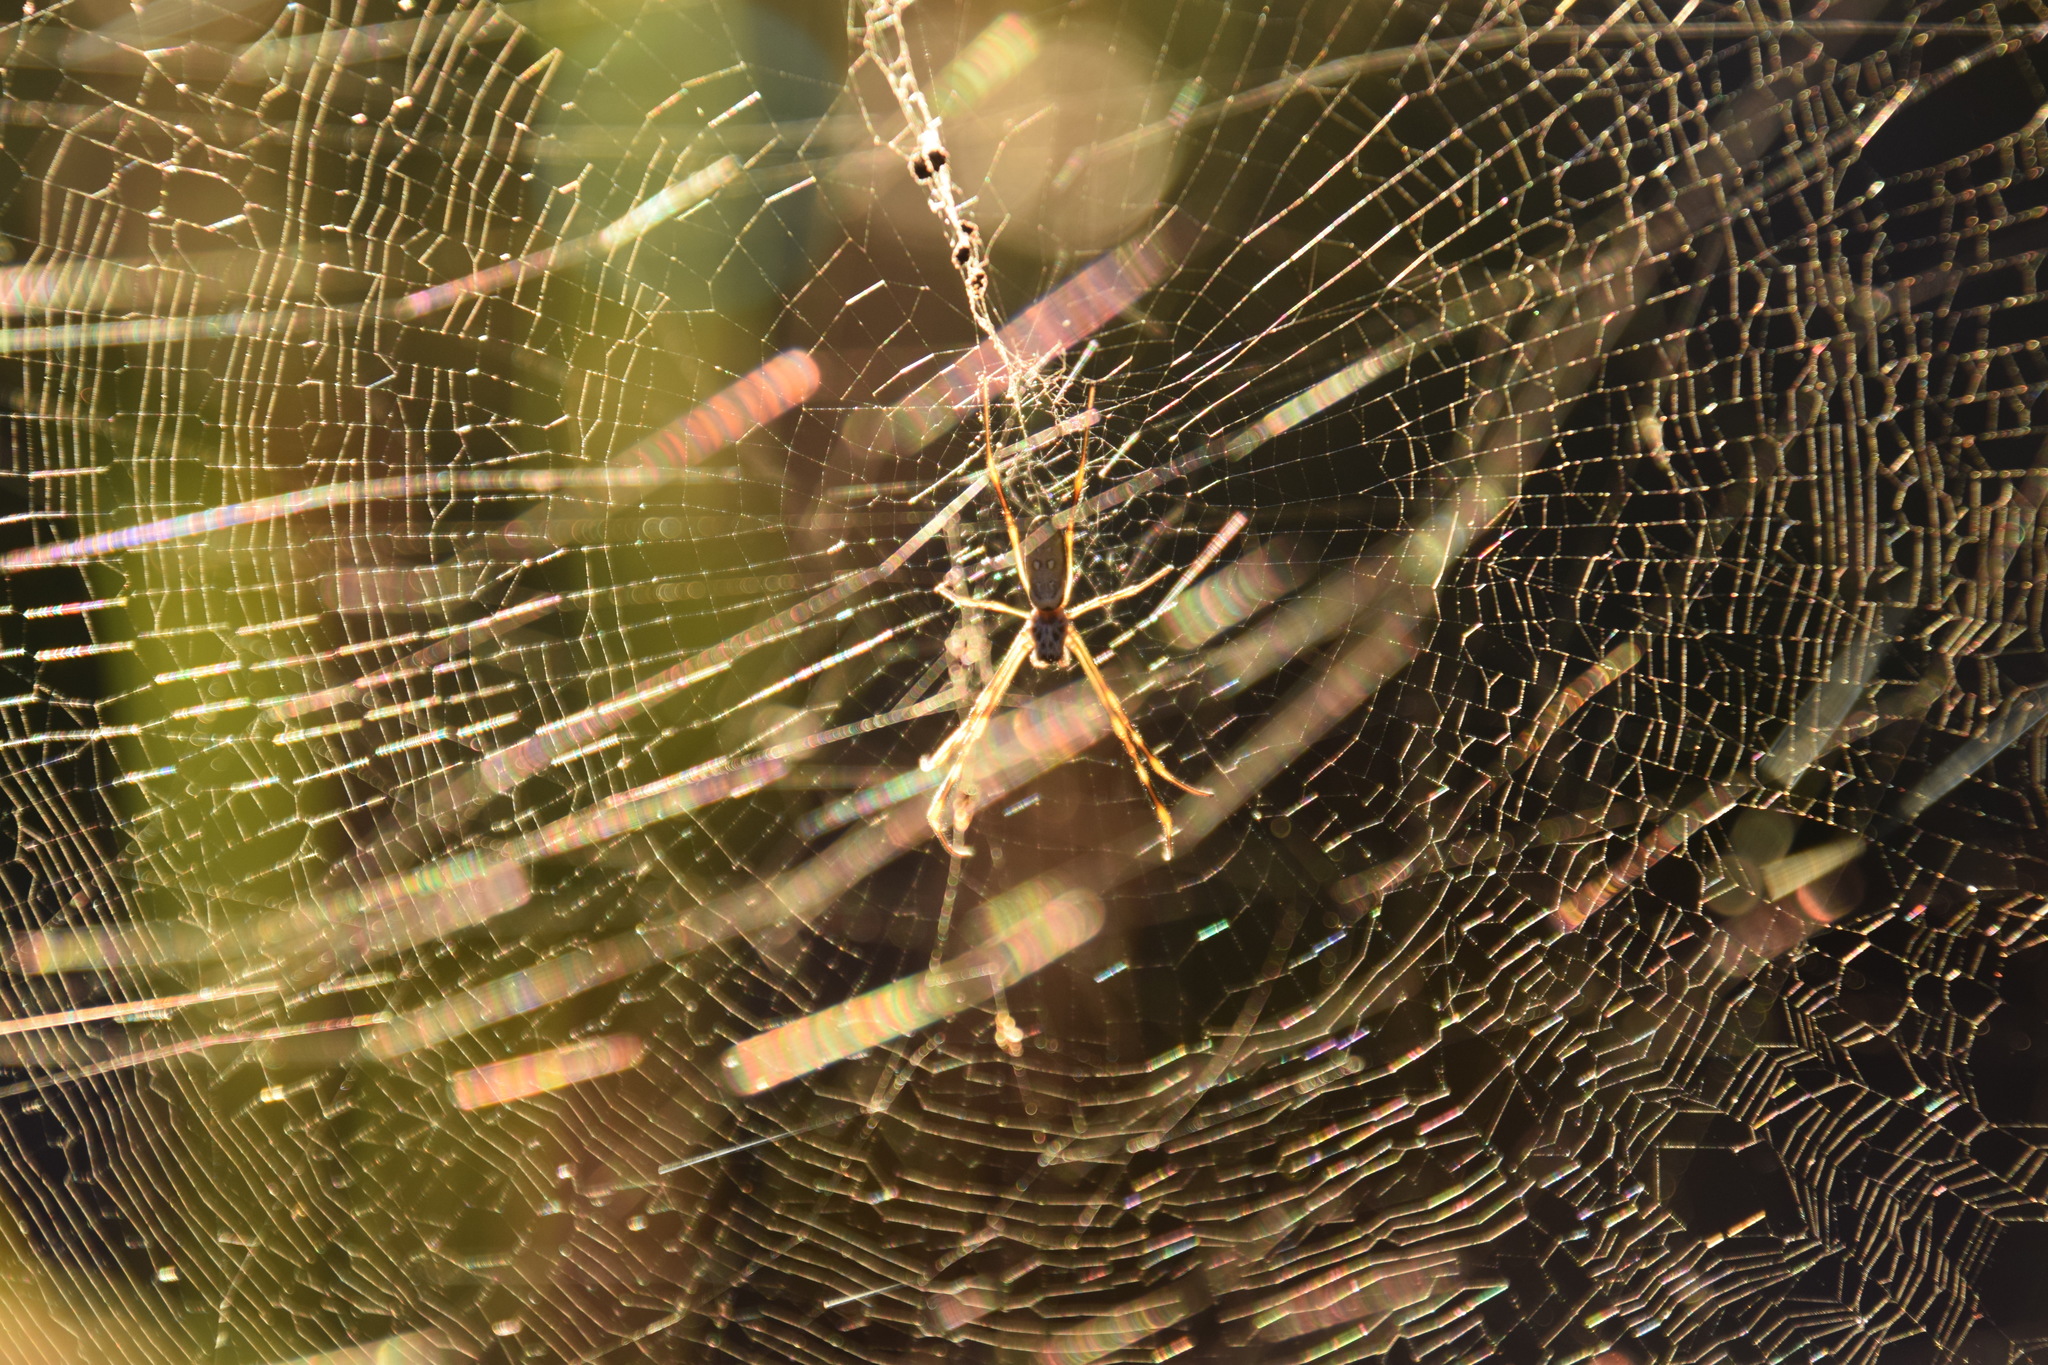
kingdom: Animalia
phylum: Arthropoda
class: Arachnida
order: Araneae
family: Araneidae
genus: Trichonephila
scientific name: Trichonephila plumipes
